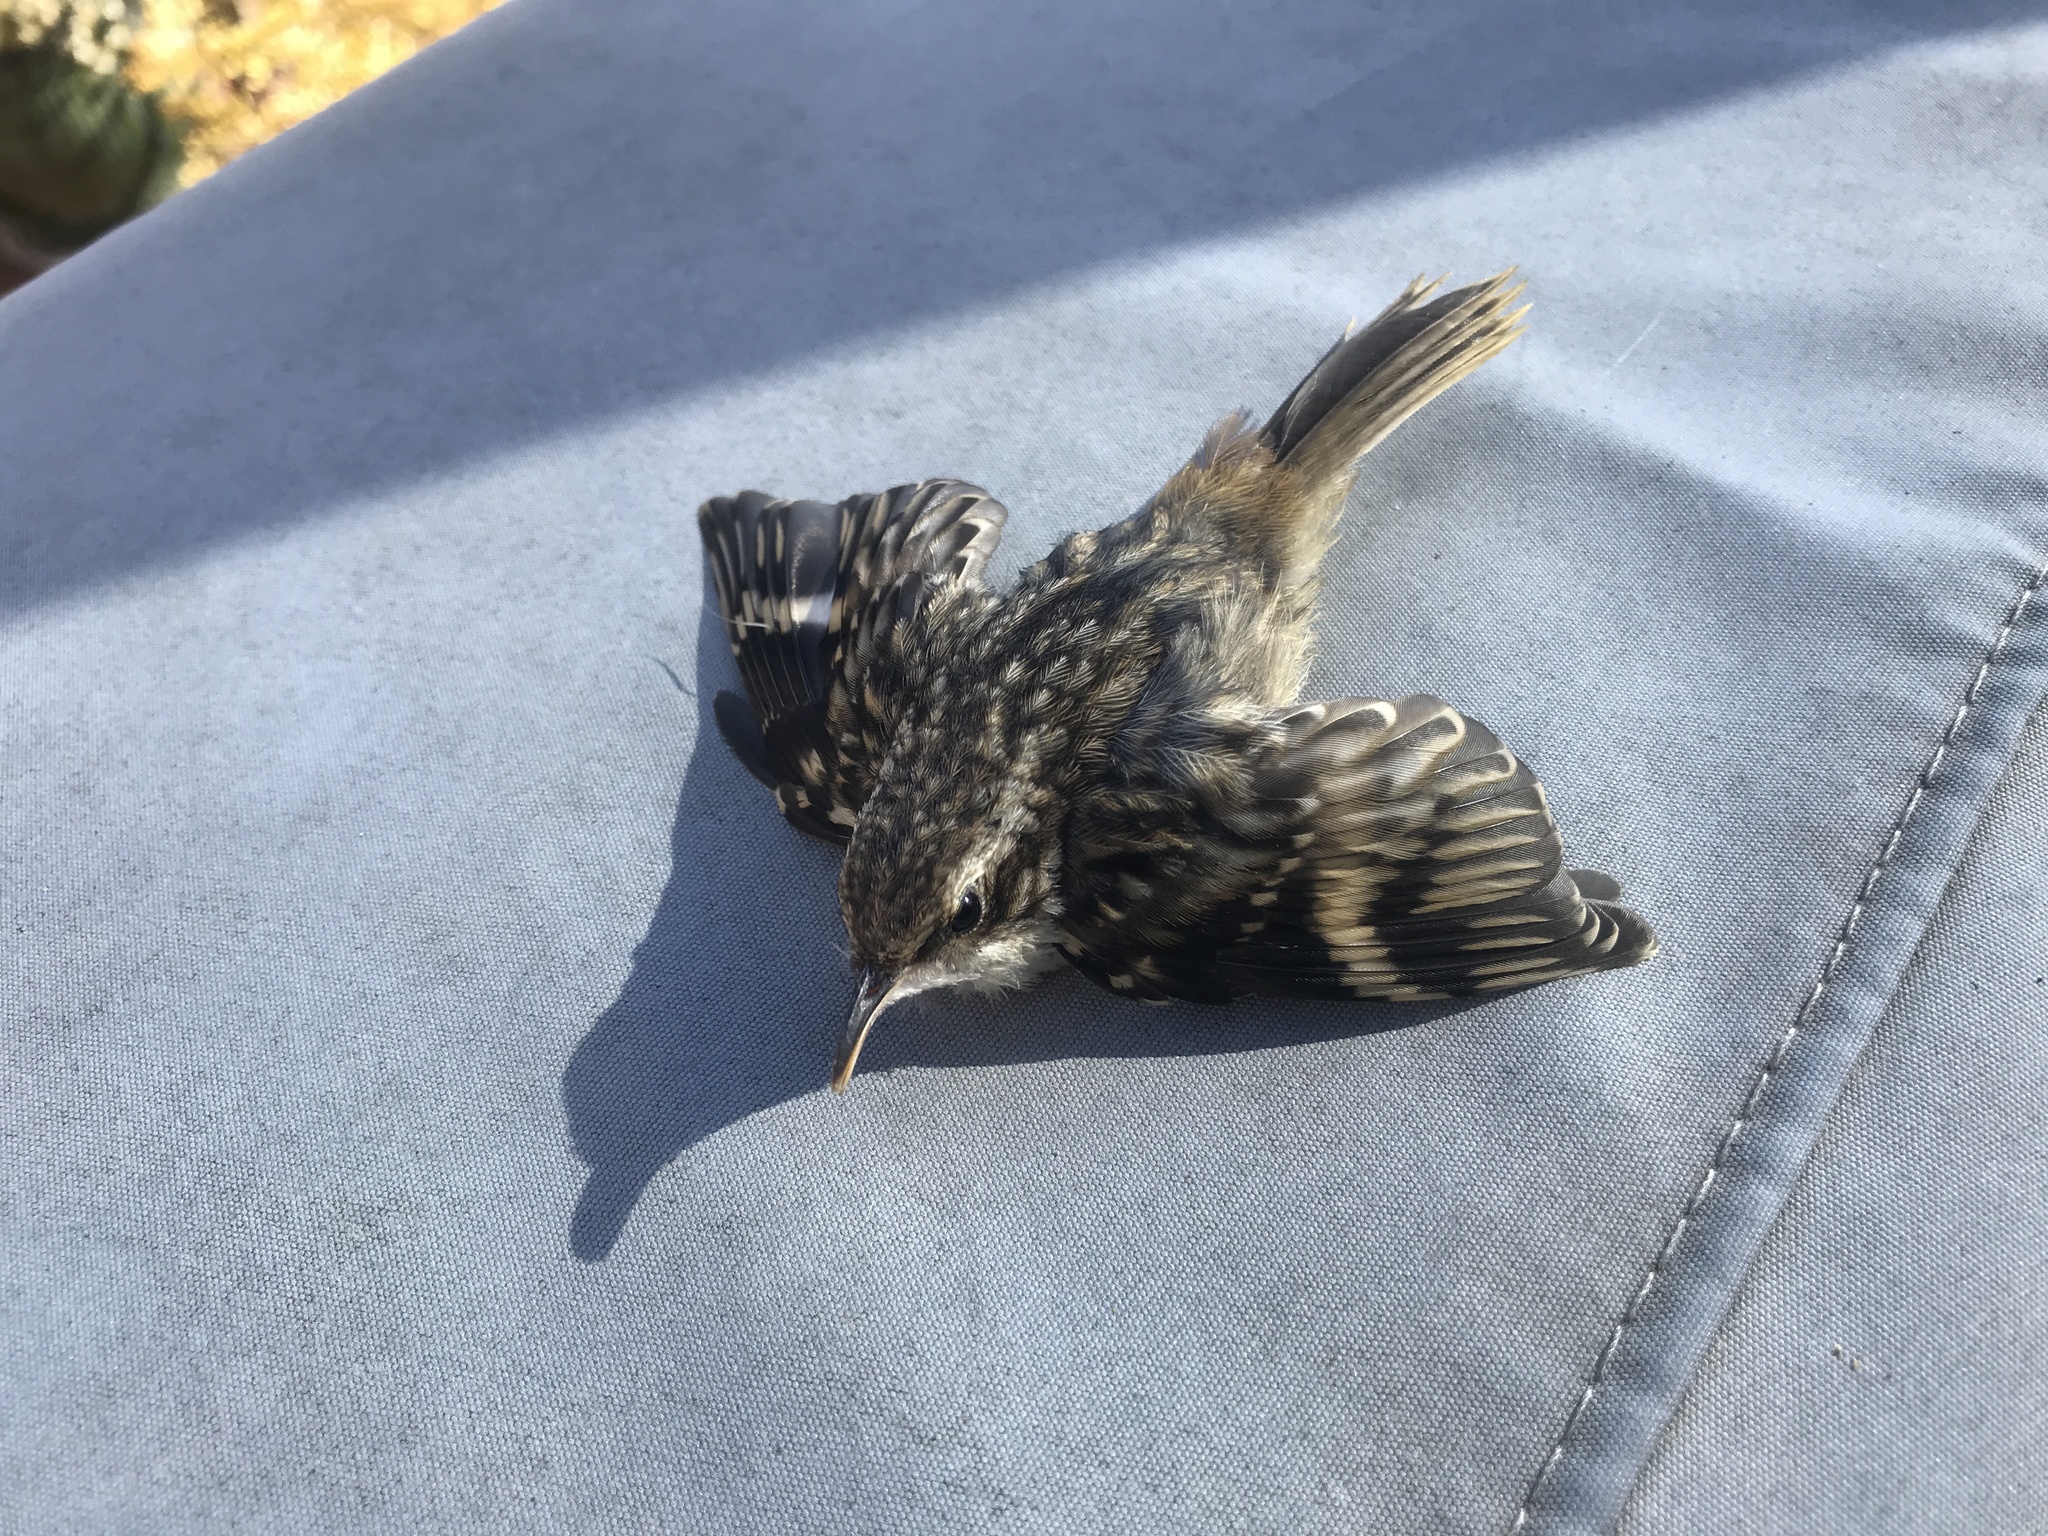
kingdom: Animalia
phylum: Chordata
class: Aves
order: Passeriformes
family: Certhiidae
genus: Certhia
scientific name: Certhia americana
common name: Brown creeper
